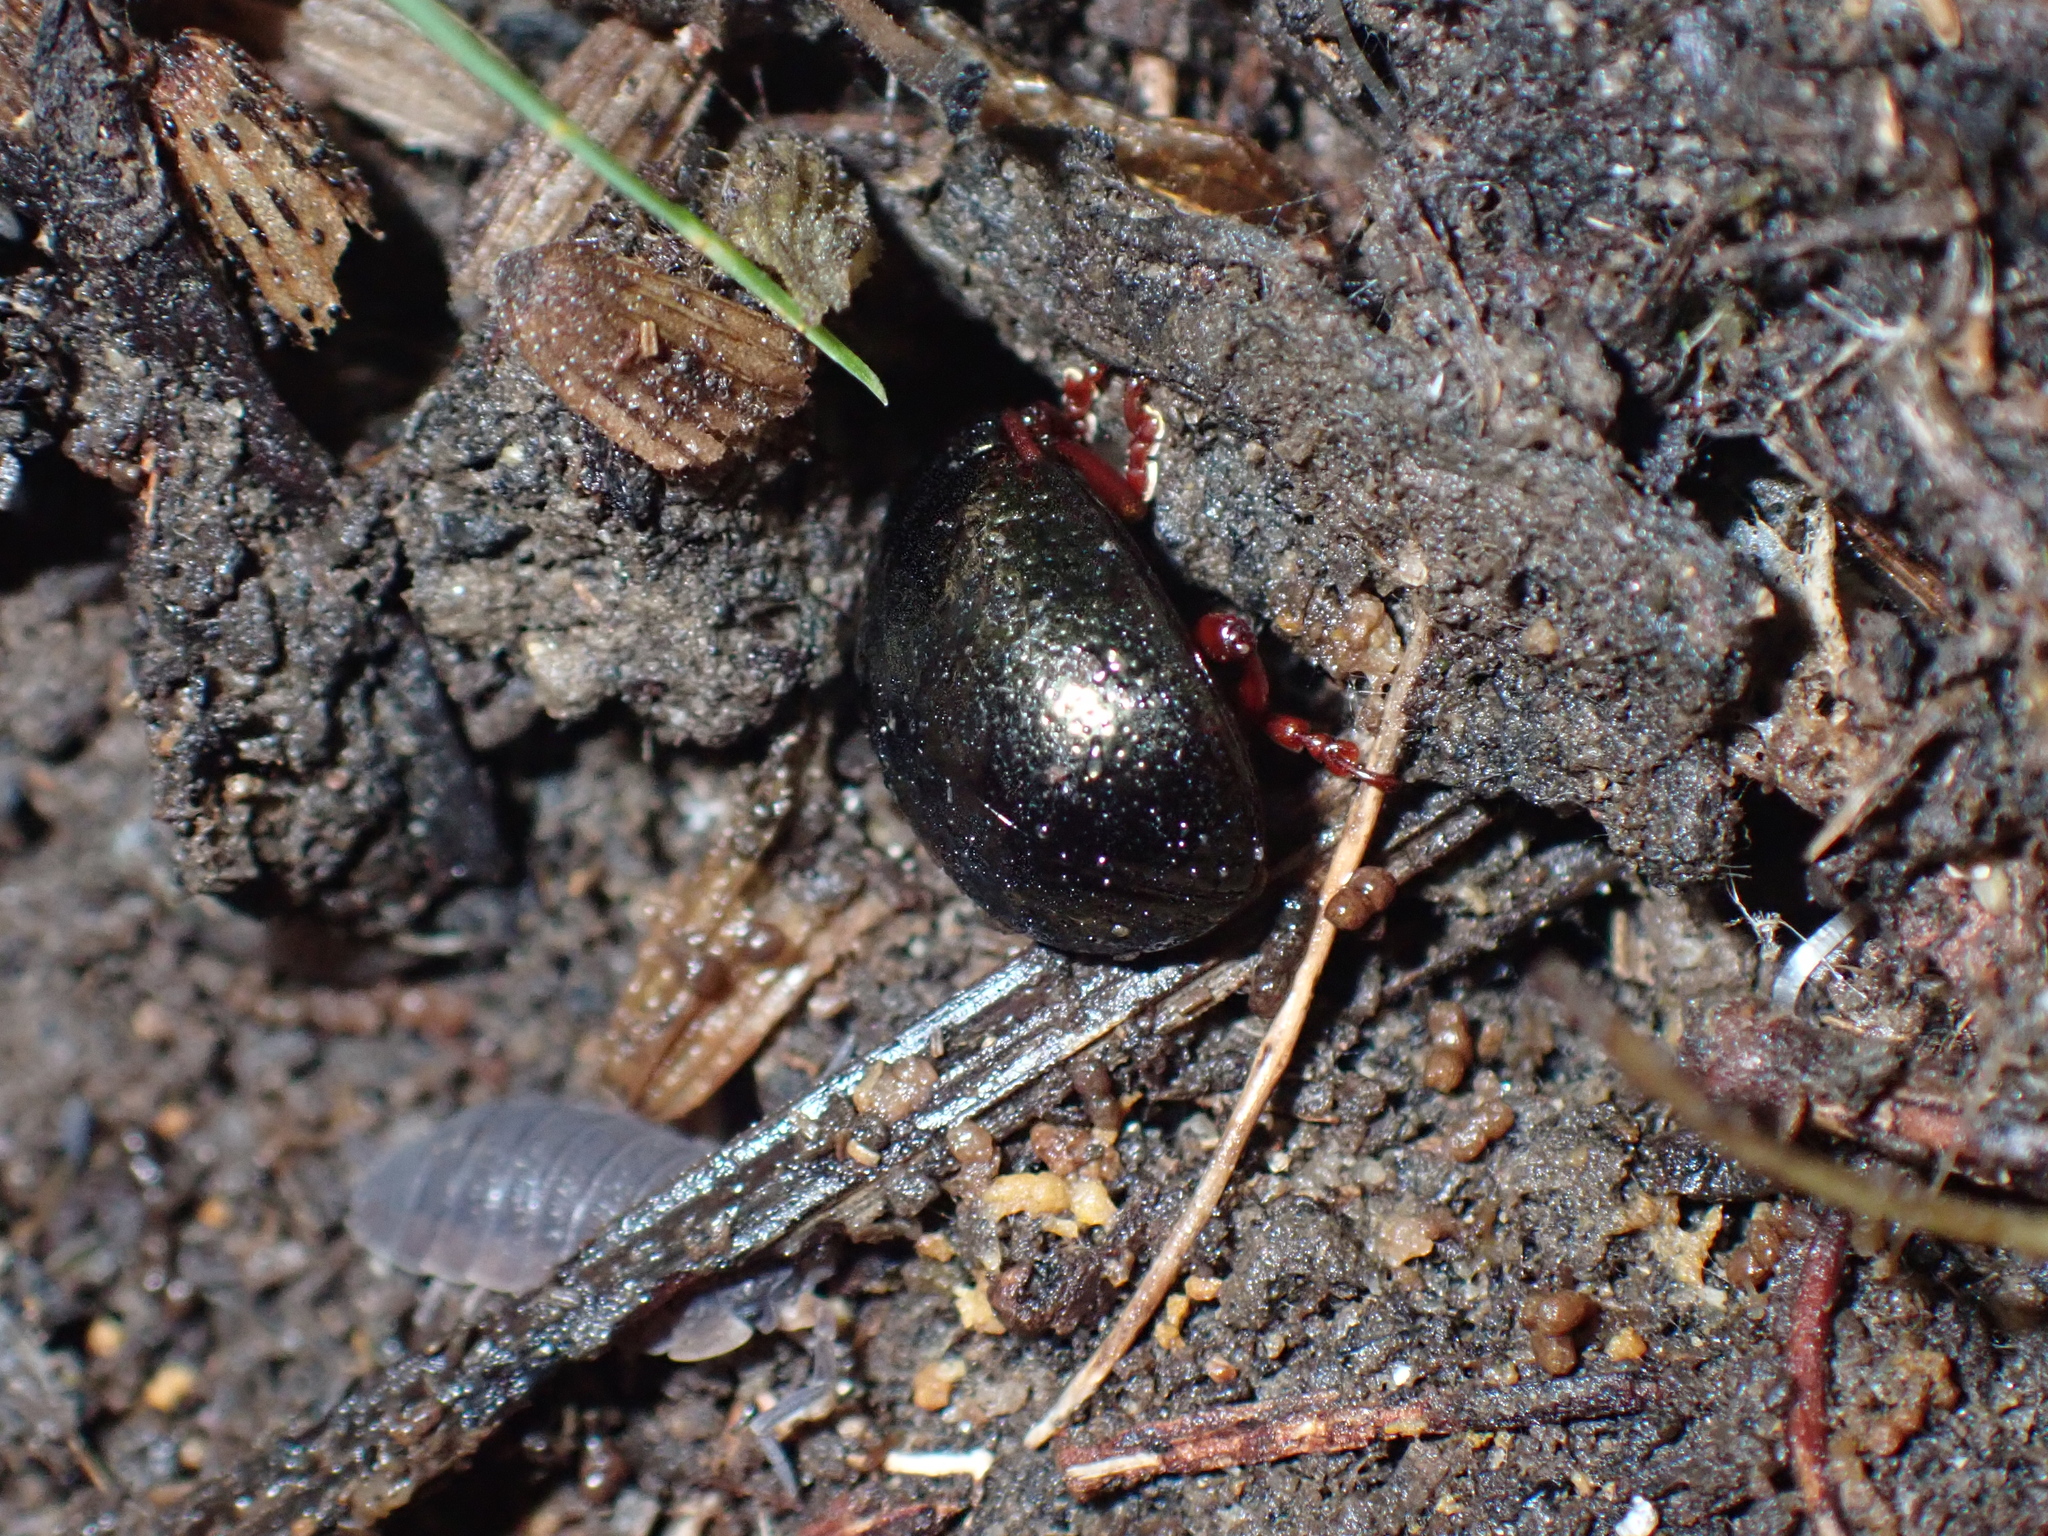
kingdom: Animalia
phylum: Arthropoda
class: Insecta
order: Coleoptera
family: Chrysomelidae
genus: Chrysolina
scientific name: Chrysolina bankii
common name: Leaf beetle
